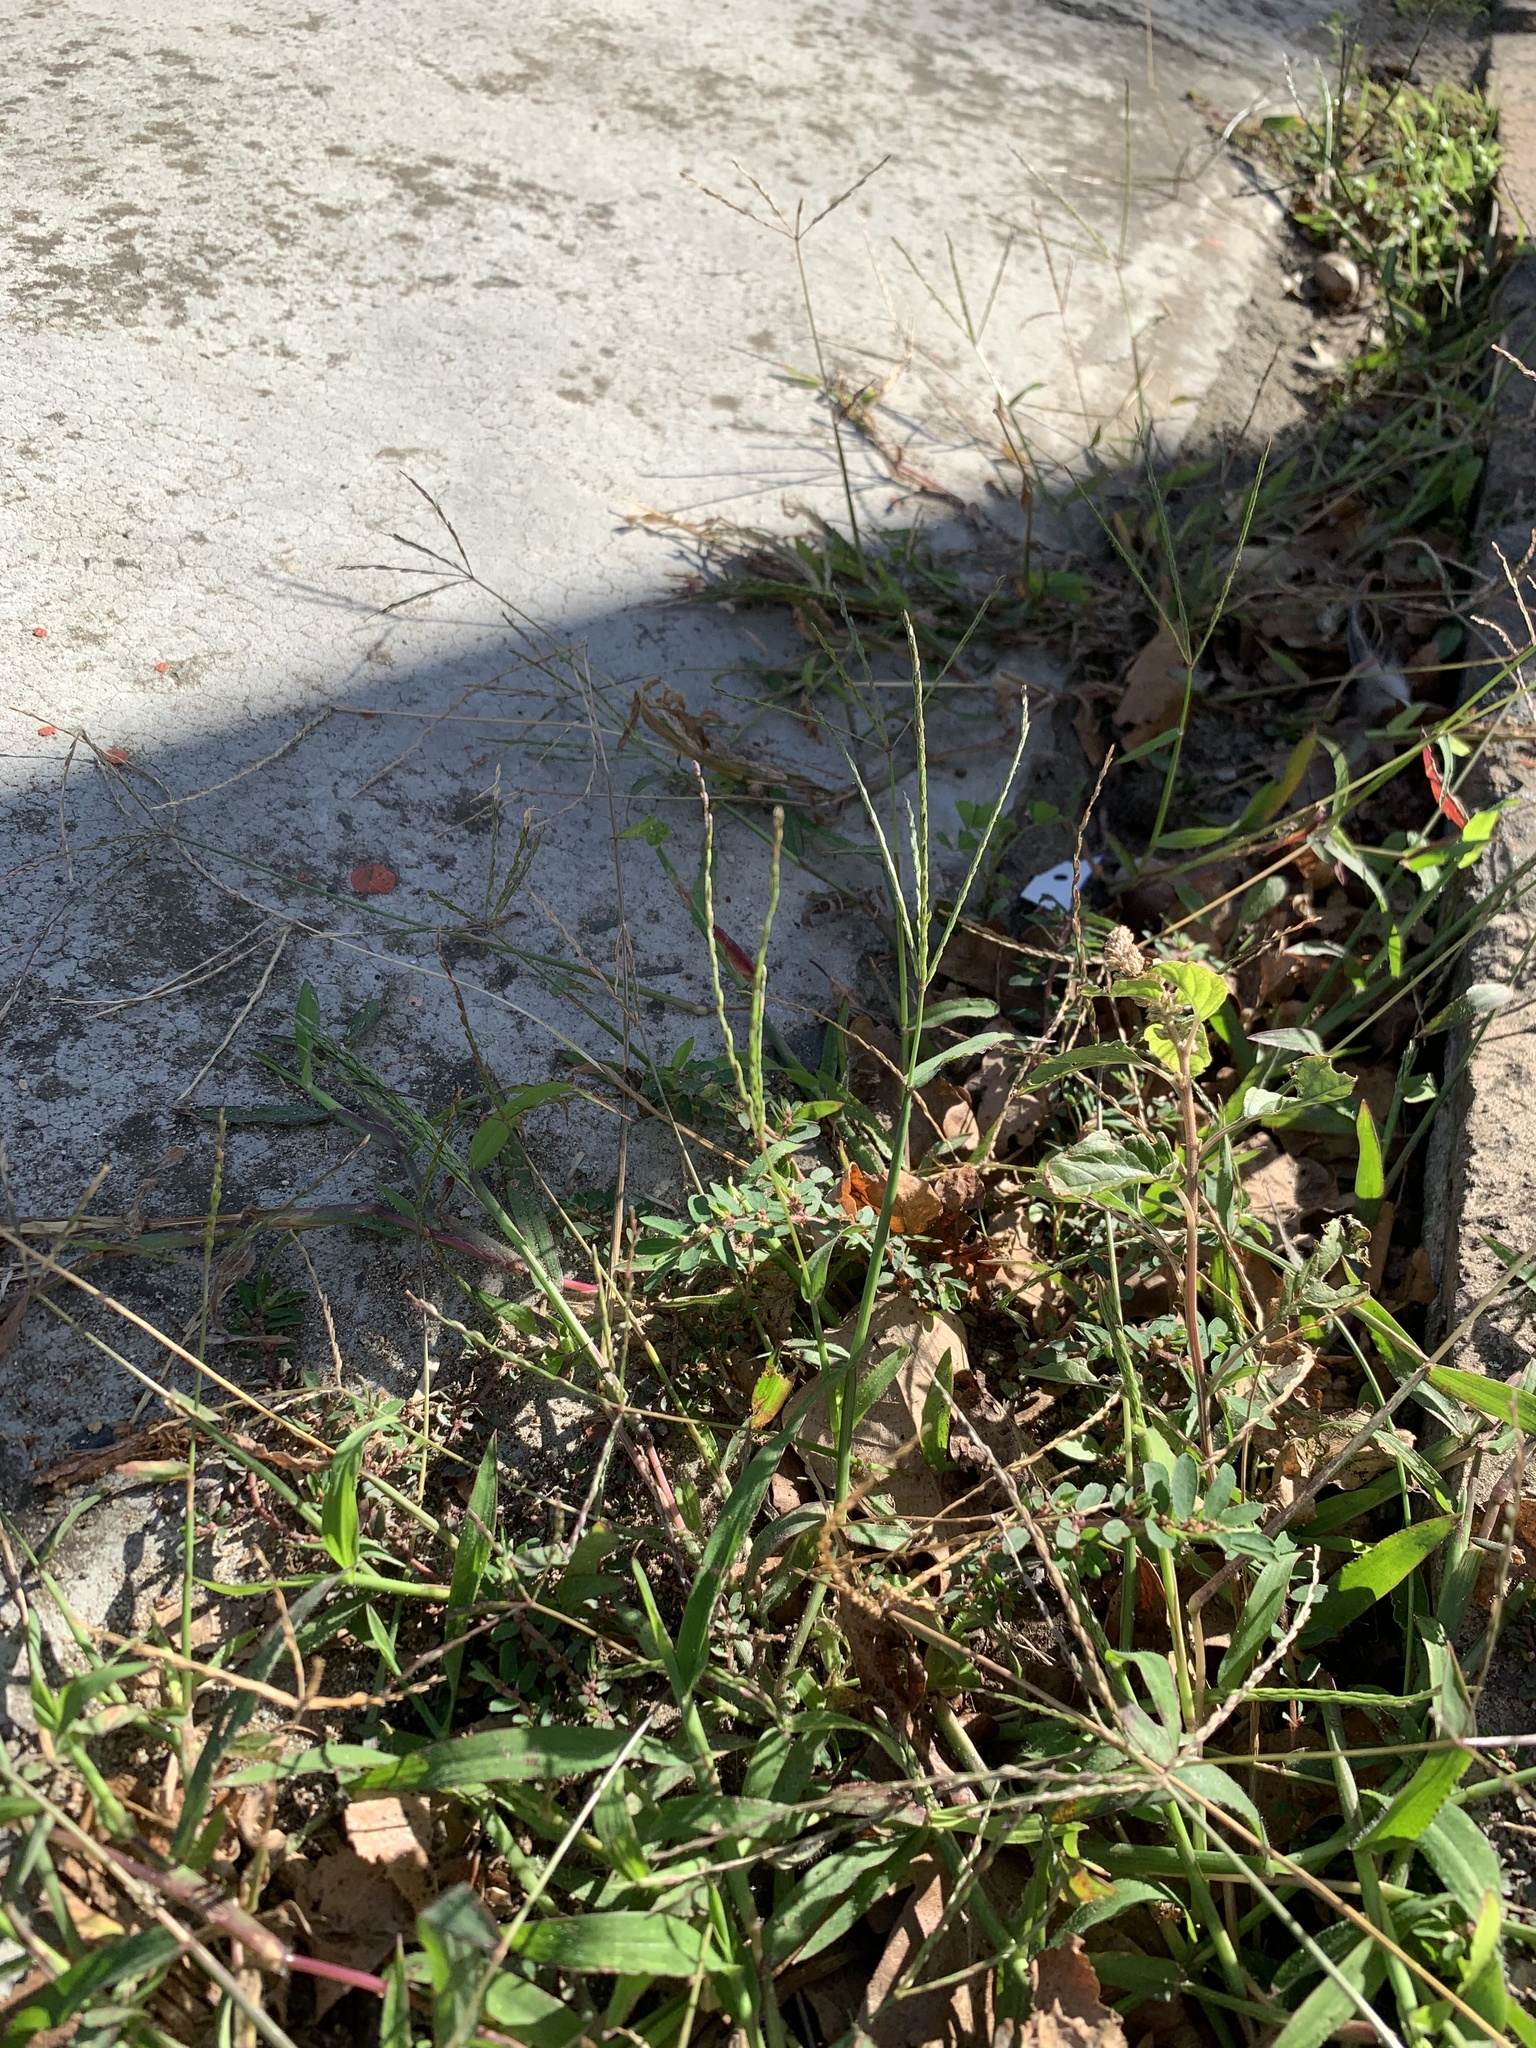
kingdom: Plantae
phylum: Tracheophyta
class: Liliopsida
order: Poales
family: Poaceae
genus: Digitaria
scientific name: Digitaria sanguinalis
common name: Hairy crabgrass
